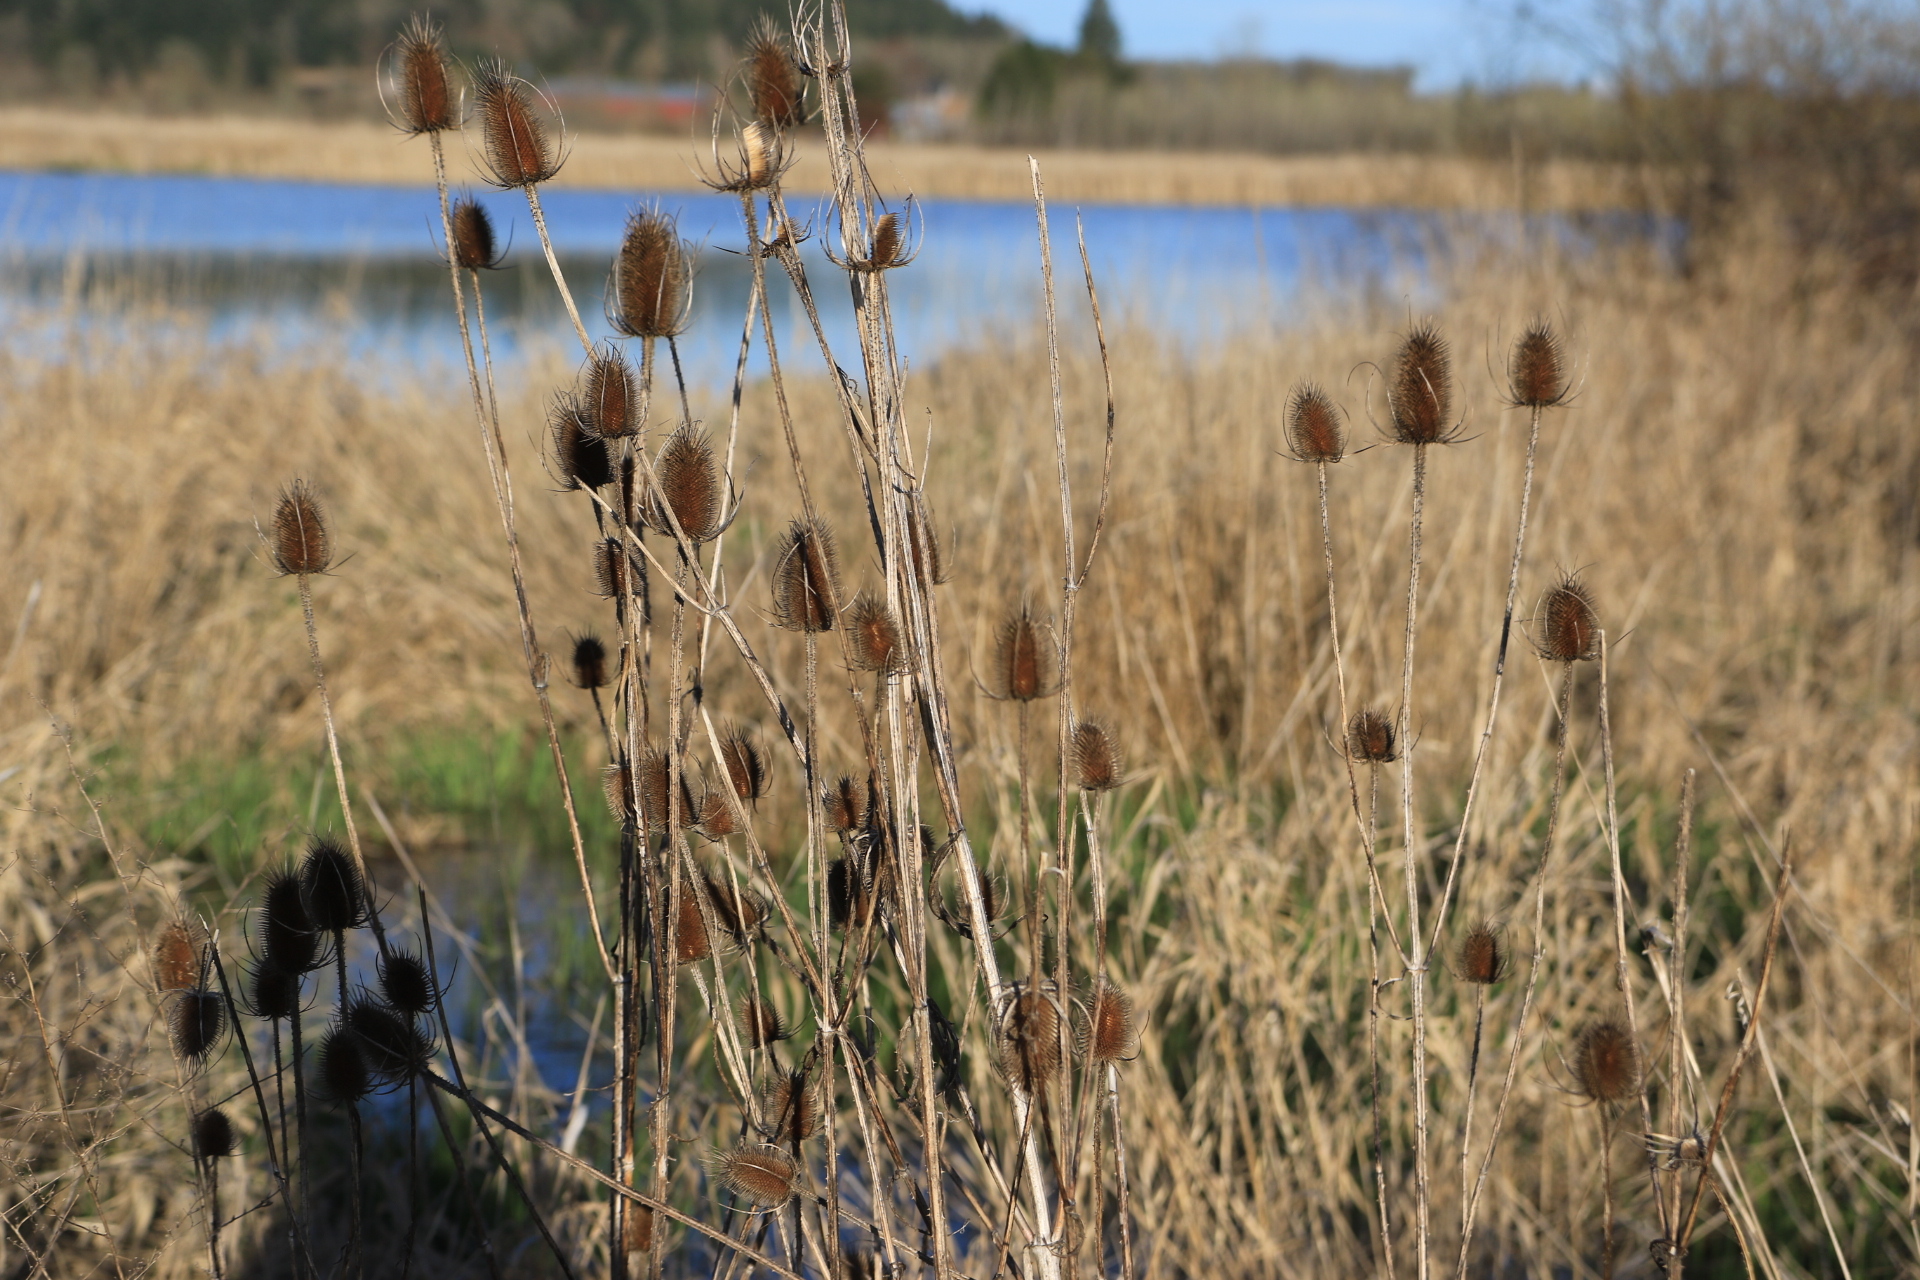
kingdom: Plantae
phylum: Tracheophyta
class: Magnoliopsida
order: Dipsacales
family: Caprifoliaceae
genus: Dipsacus
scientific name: Dipsacus fullonum
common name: Teasel
